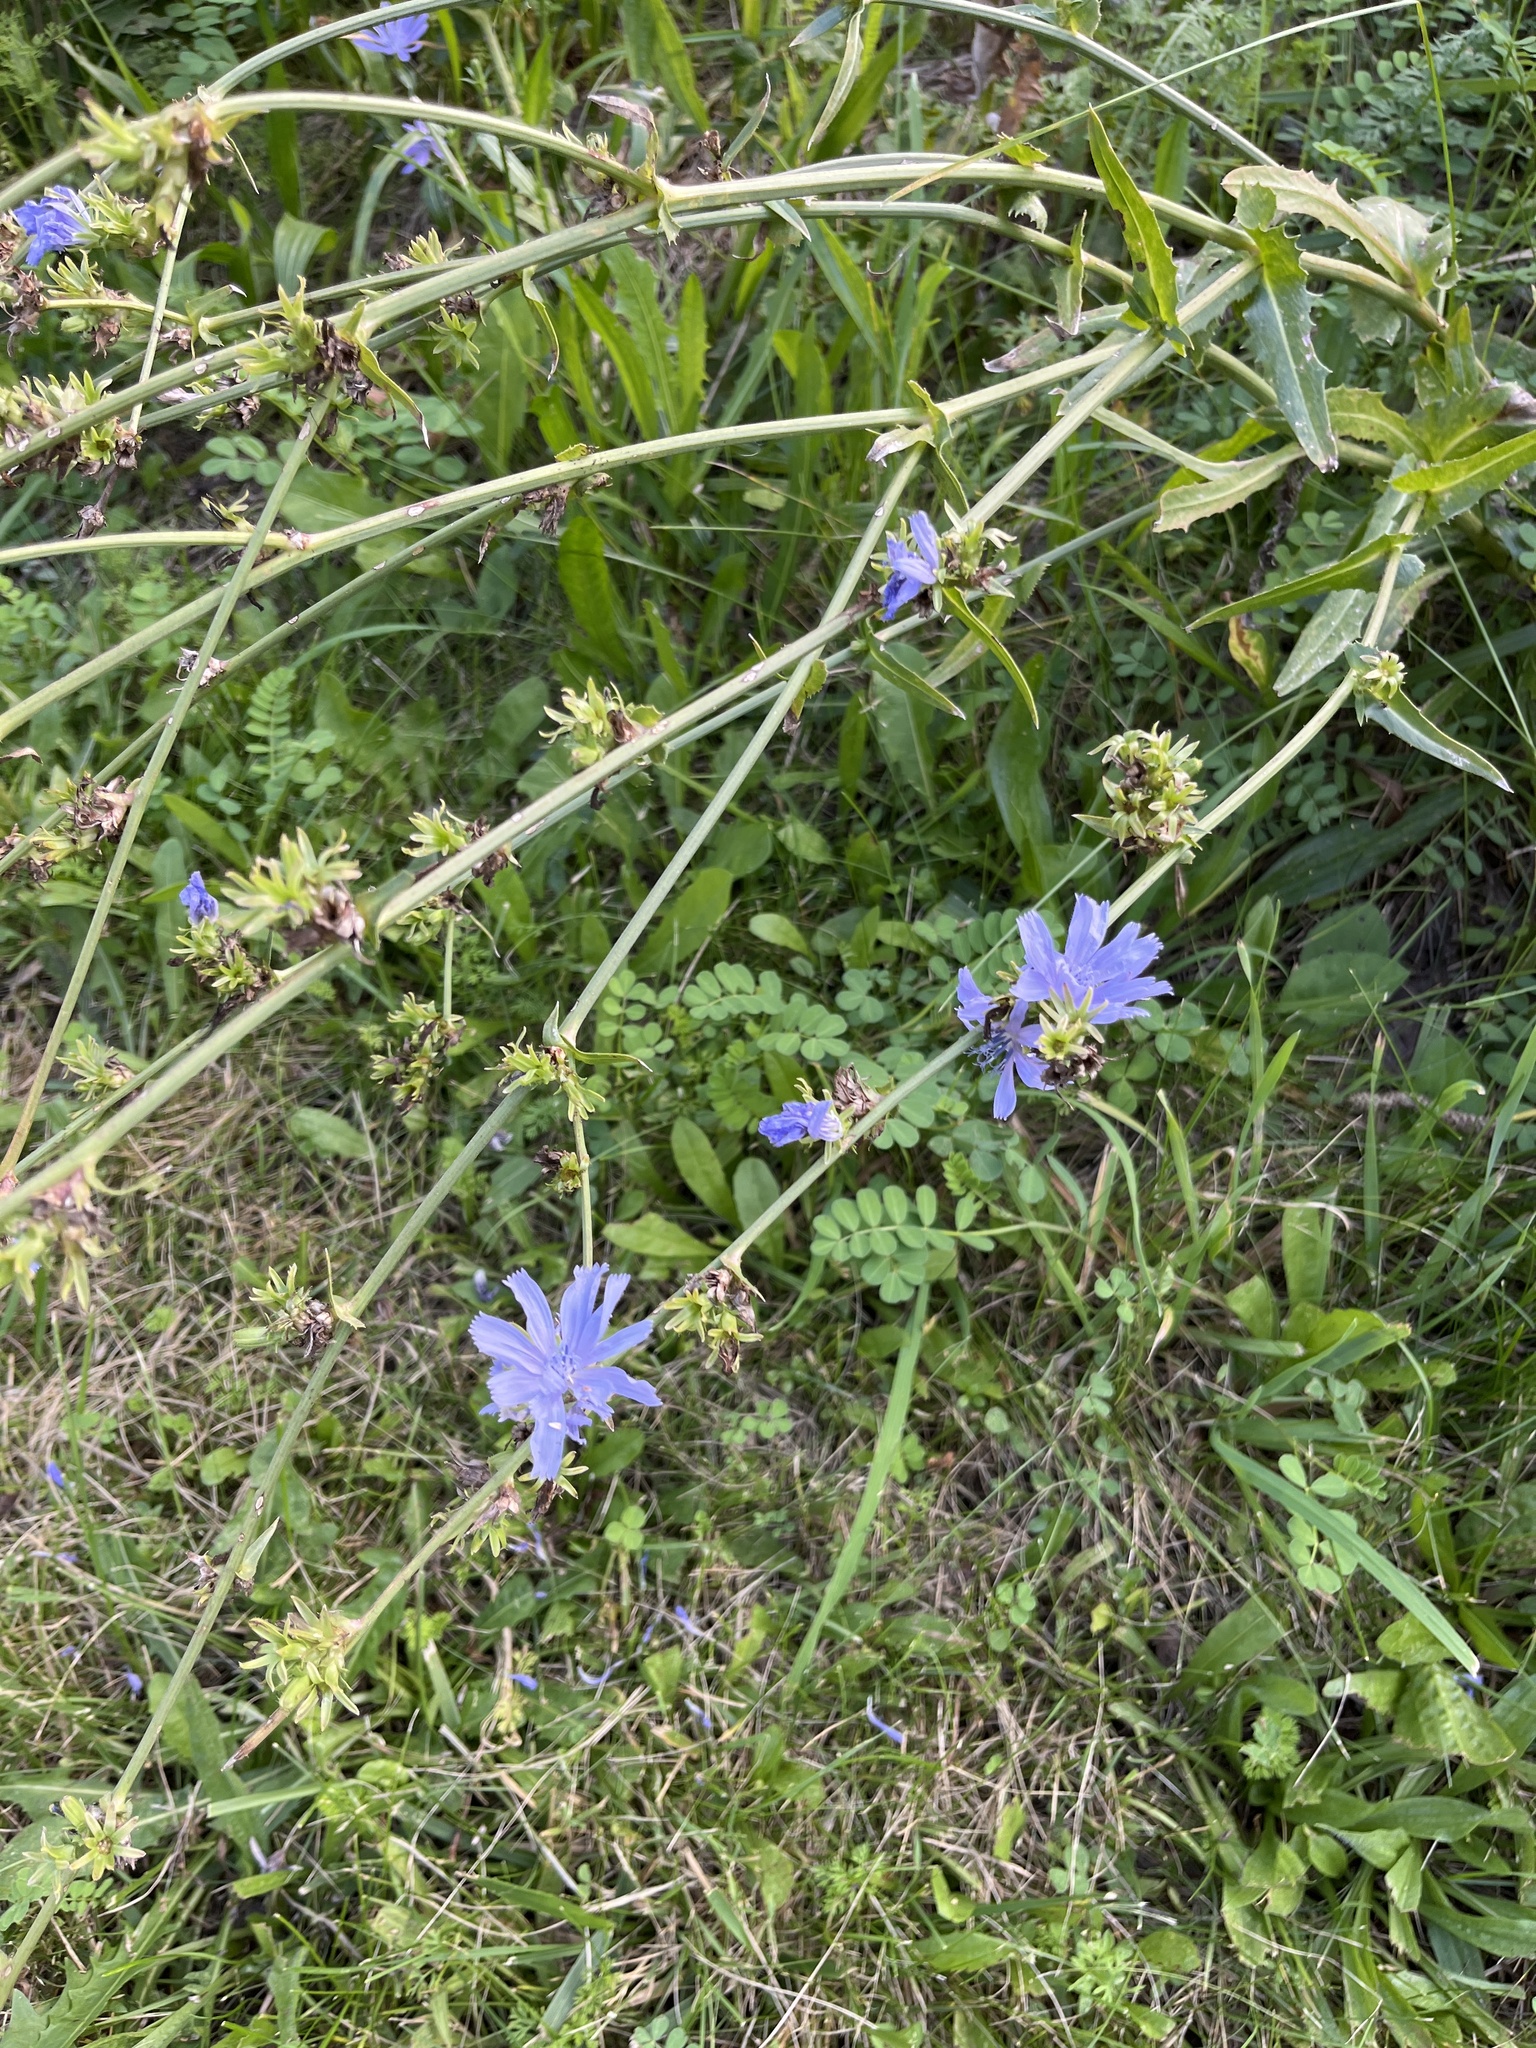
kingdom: Plantae
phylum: Tracheophyta
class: Magnoliopsida
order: Asterales
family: Asteraceae
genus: Cichorium
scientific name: Cichorium intybus
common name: Chicory
